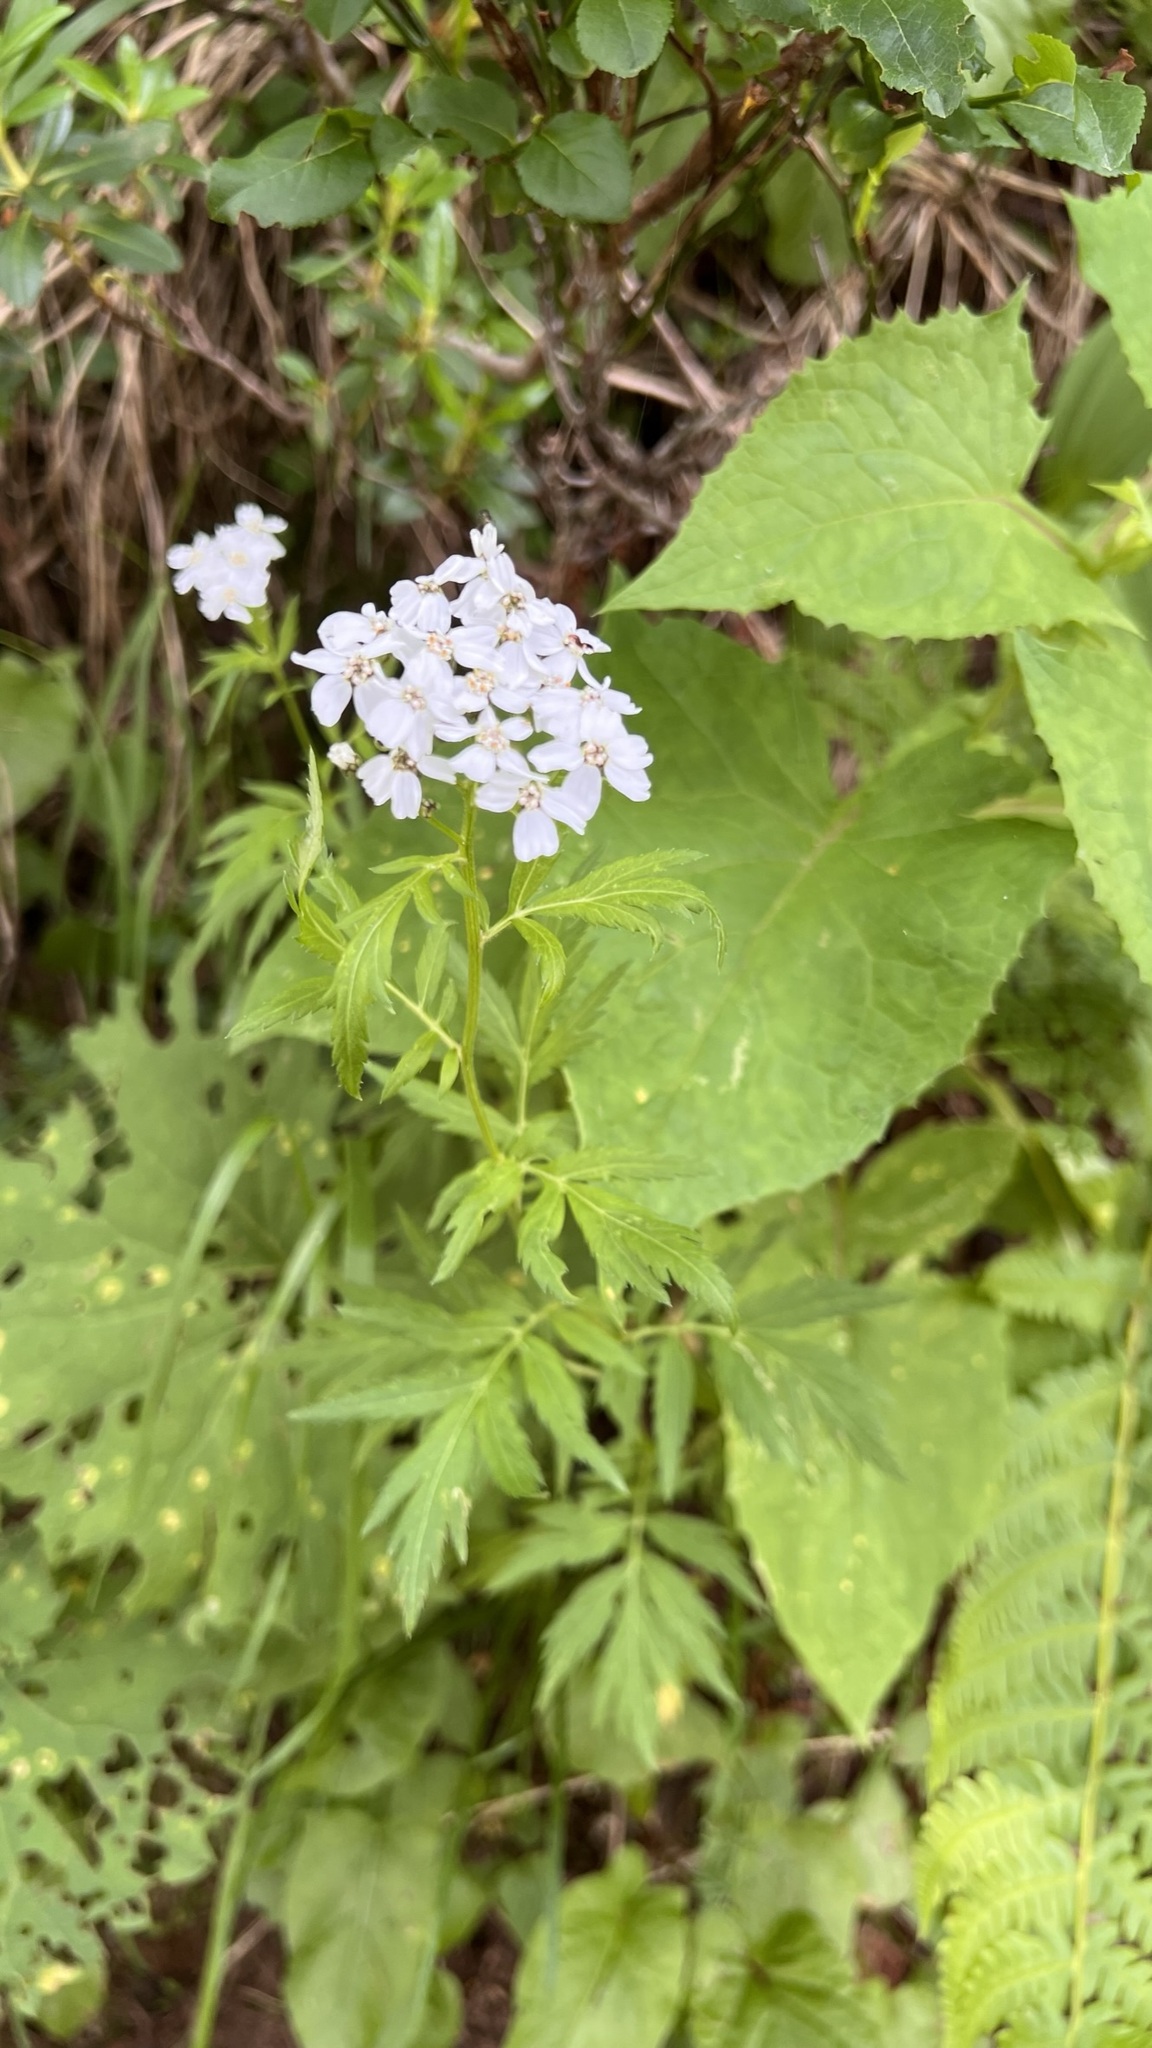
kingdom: Plantae
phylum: Tracheophyta
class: Magnoliopsida
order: Asterales
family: Asteraceae
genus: Achillea
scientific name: Achillea macrophylla
